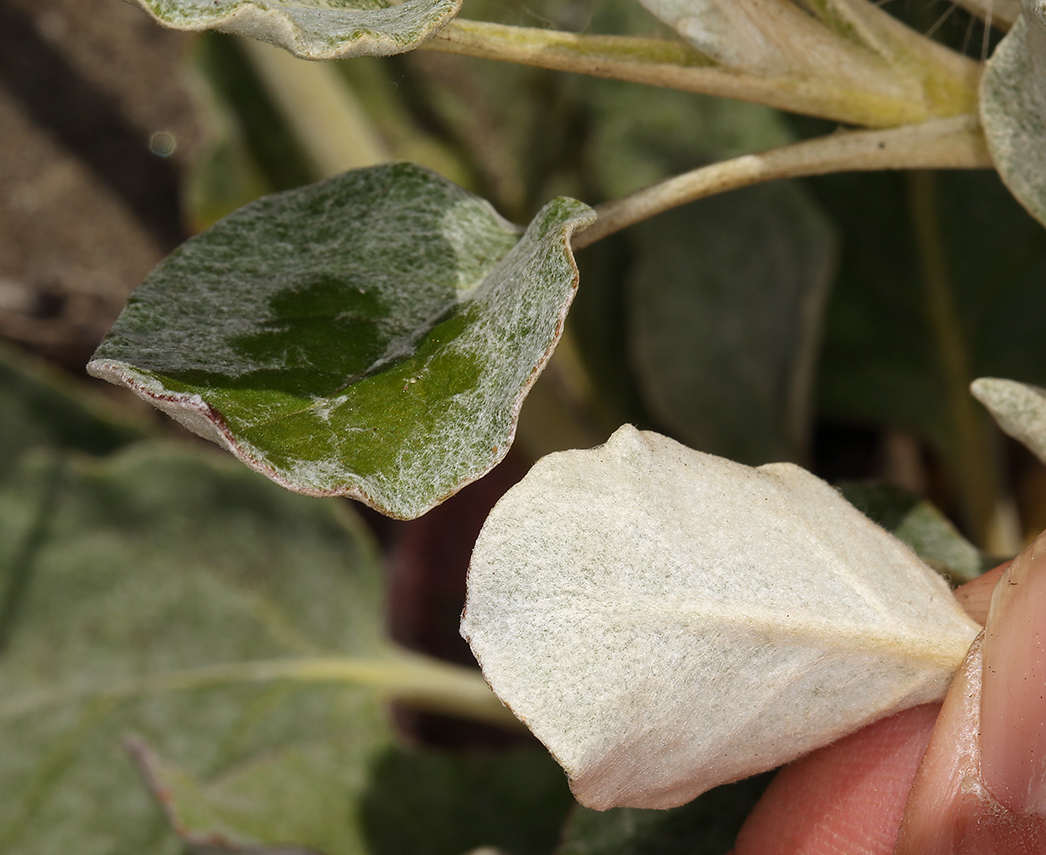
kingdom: Plantae
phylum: Tracheophyta
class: Magnoliopsida
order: Caryophyllales
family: Polygonaceae
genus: Eriogonum
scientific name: Eriogonum latifolium
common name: Seaside wild buckwheat
